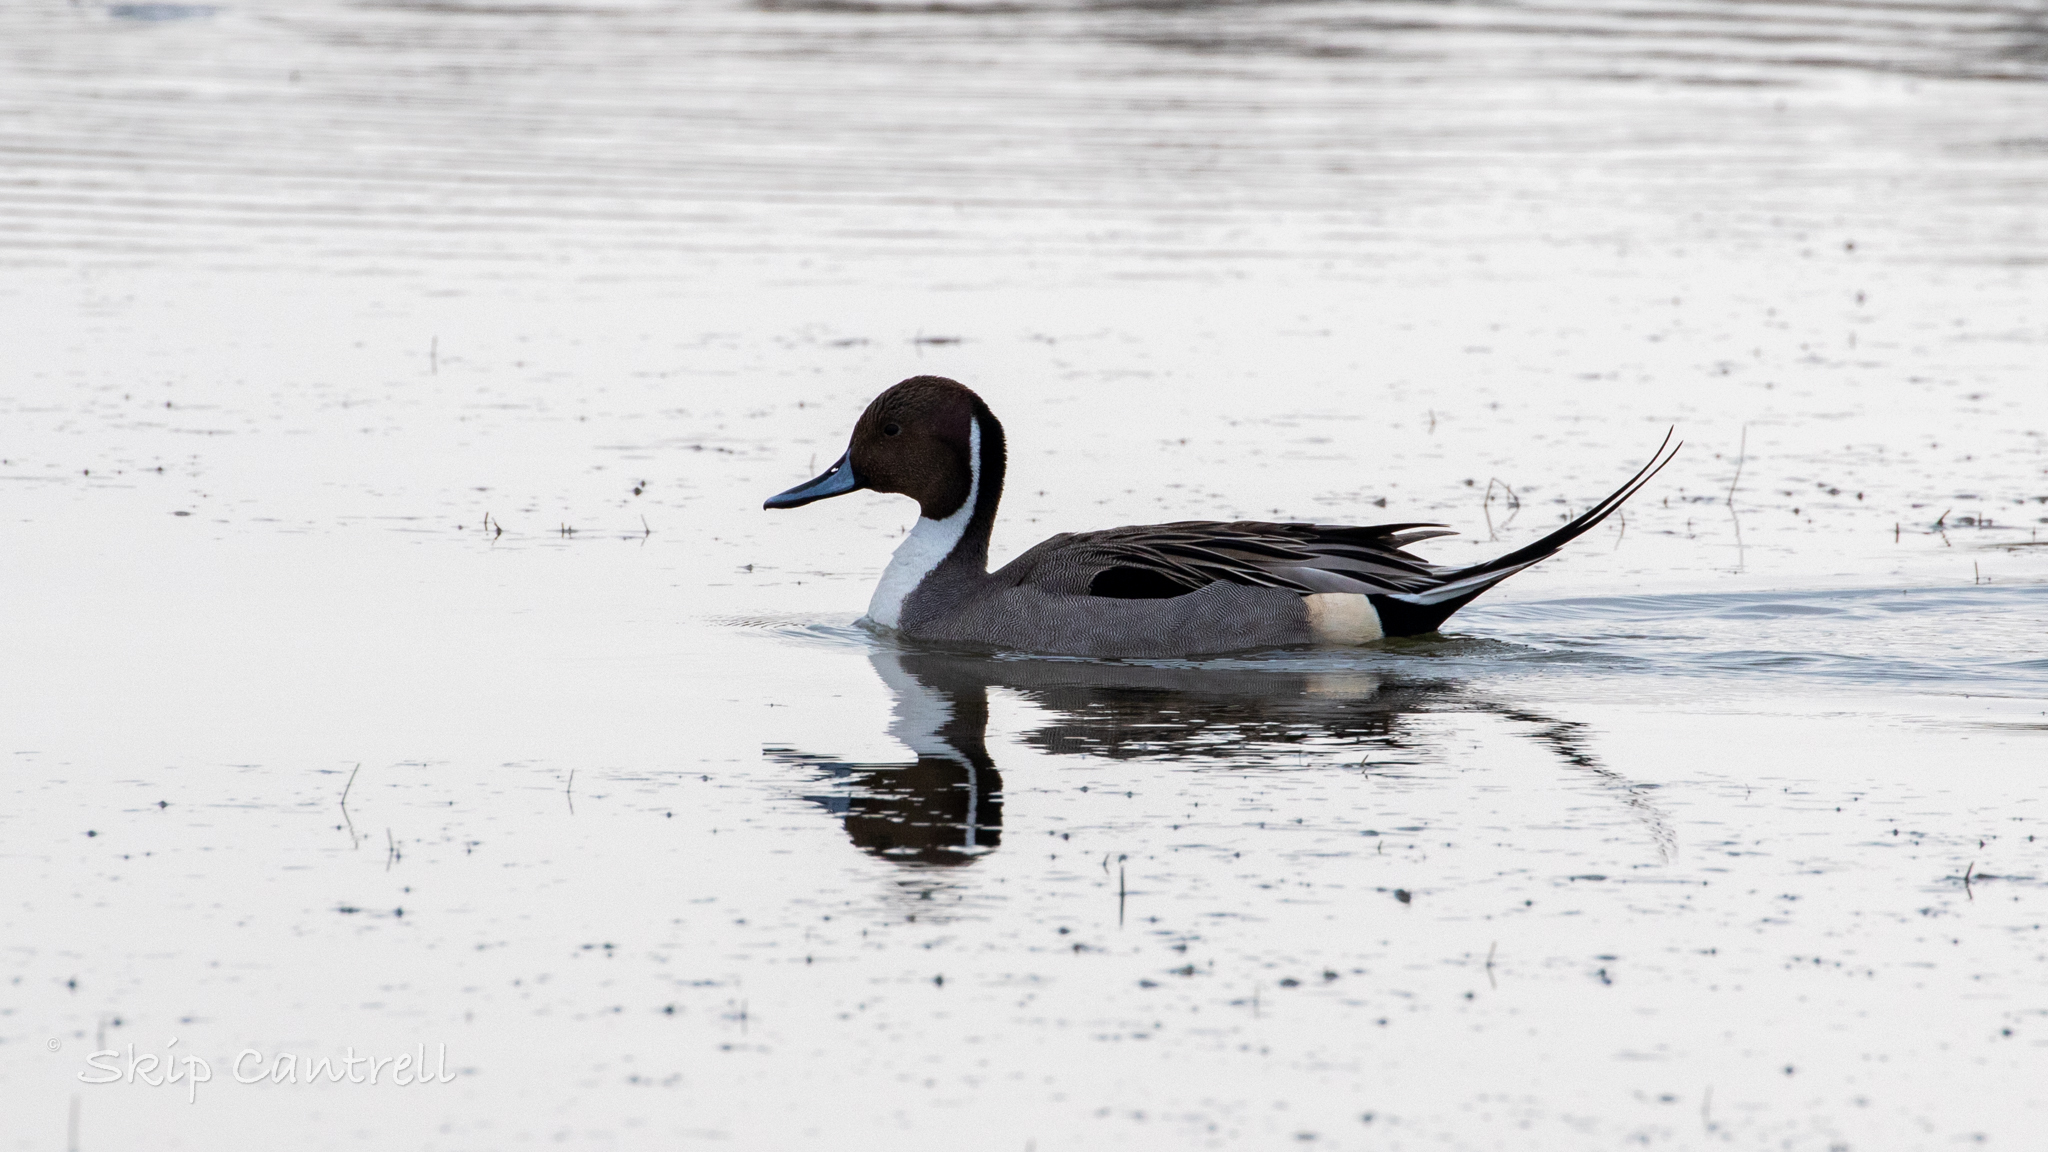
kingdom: Animalia
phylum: Chordata
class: Aves
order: Anseriformes
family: Anatidae
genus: Anas
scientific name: Anas acuta
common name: Northern pintail
